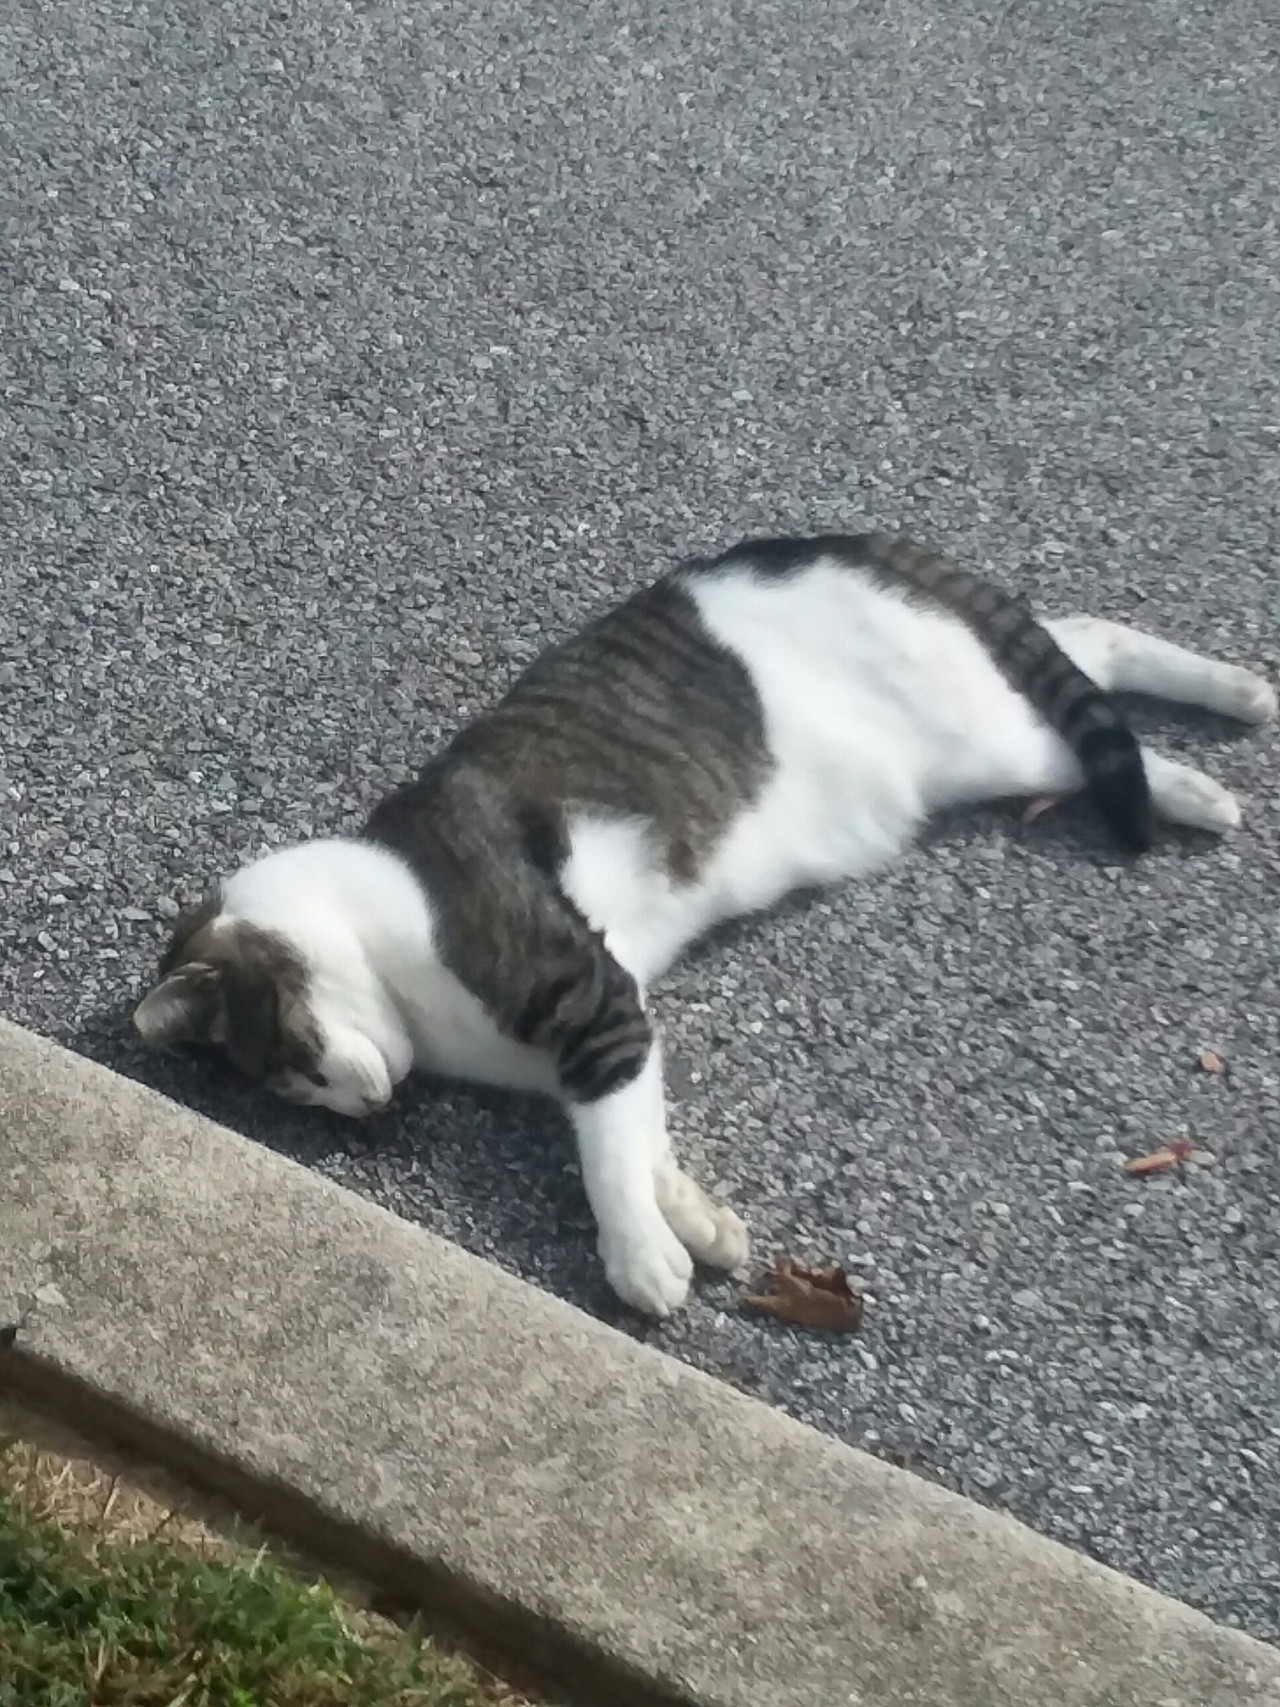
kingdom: Animalia
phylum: Chordata
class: Mammalia
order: Carnivora
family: Felidae
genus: Felis
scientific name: Felis catus
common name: Domestic cat
